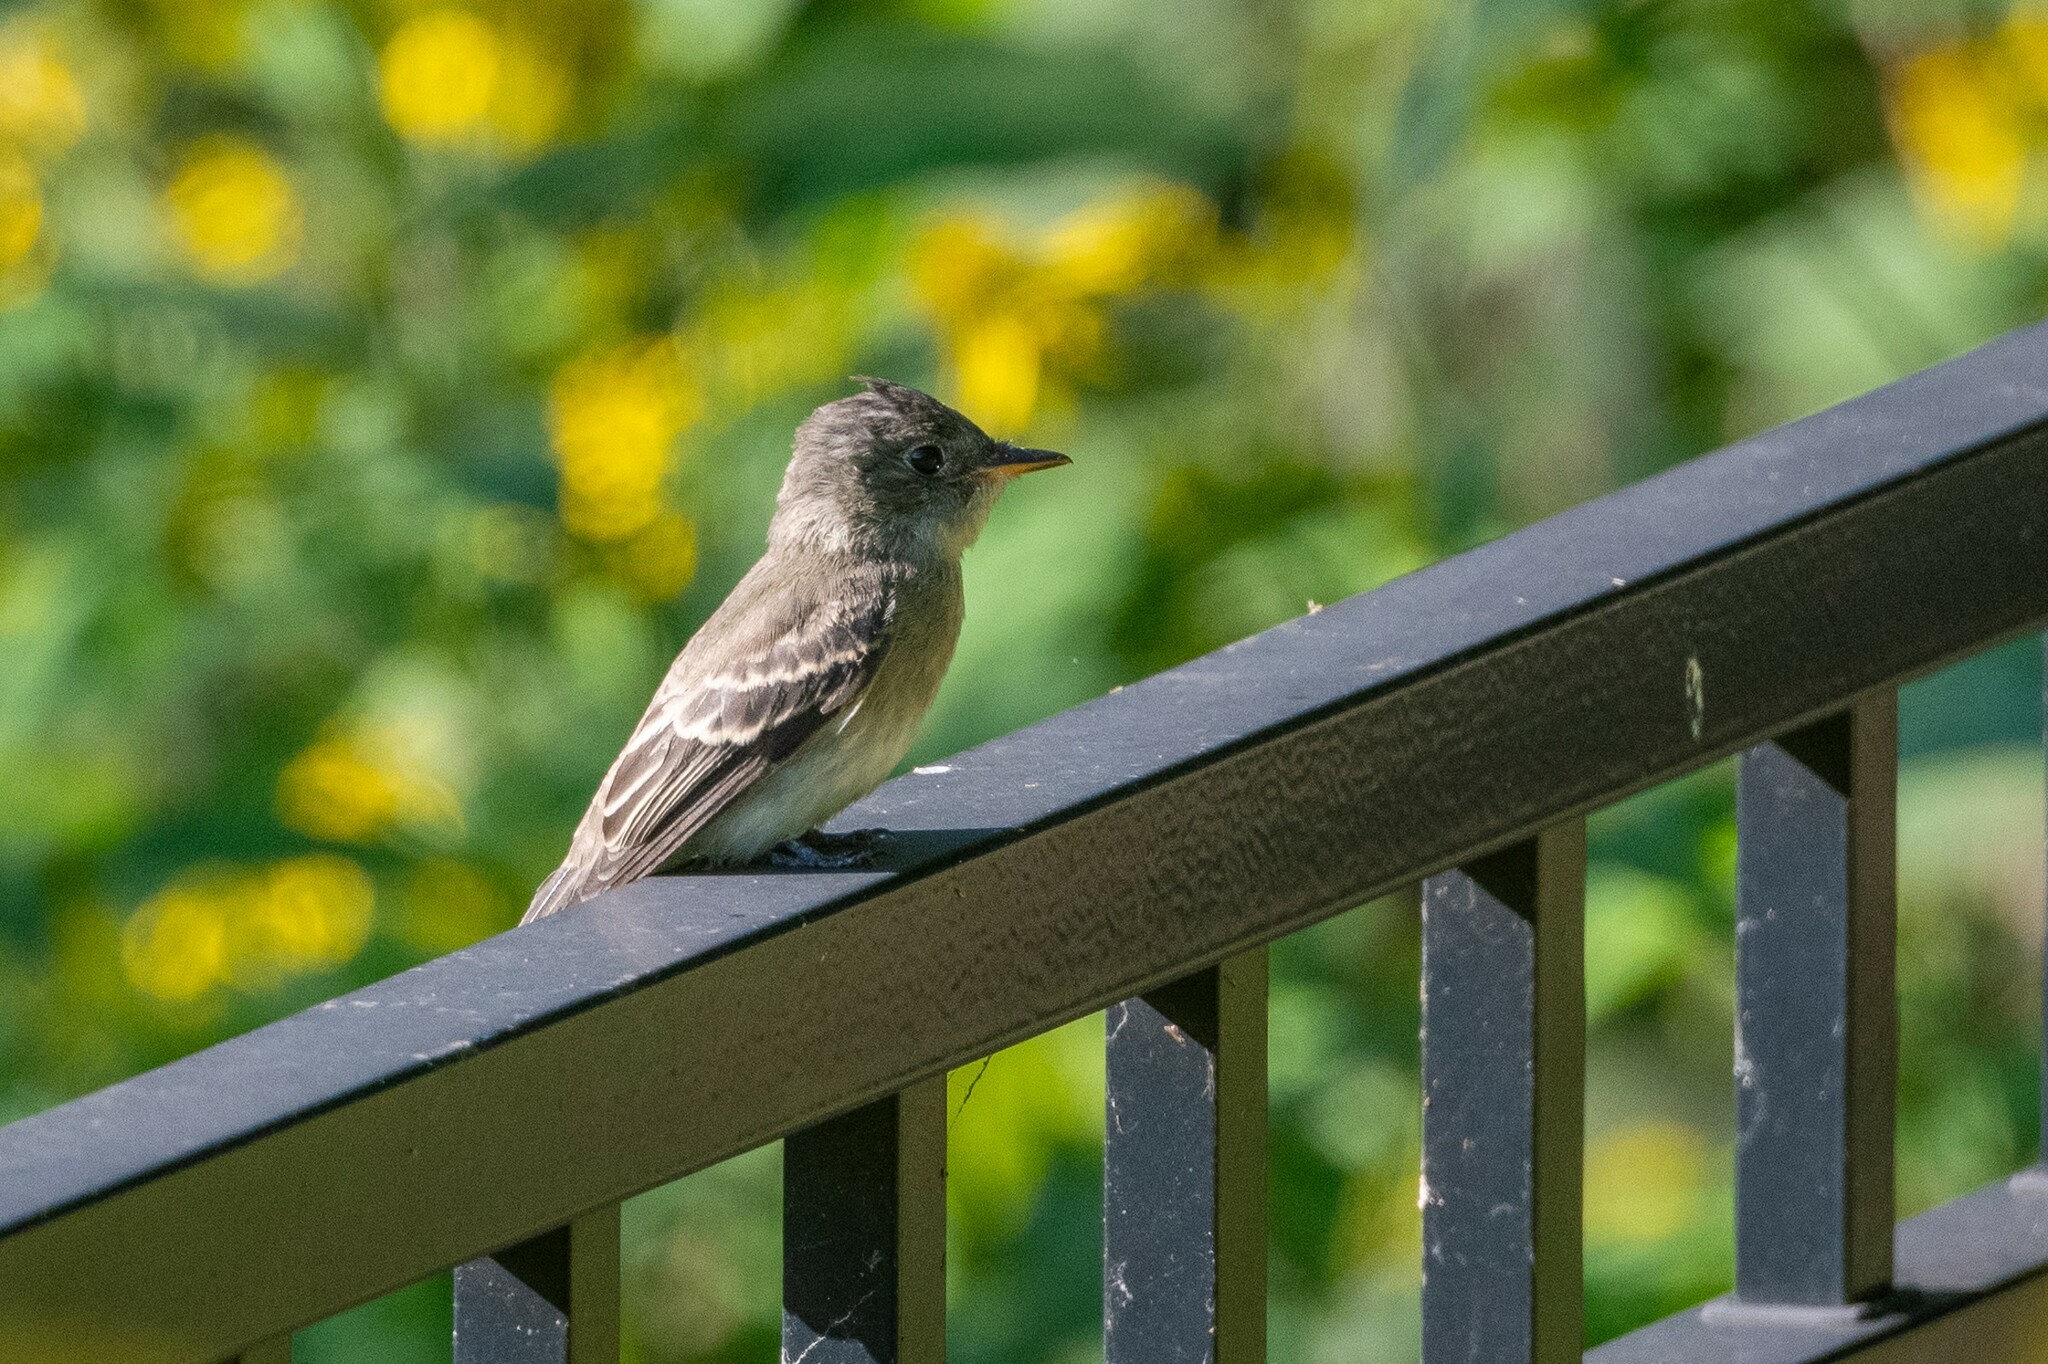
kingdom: Animalia
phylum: Chordata
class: Aves
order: Passeriformes
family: Tyrannidae
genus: Contopus
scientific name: Contopus virens
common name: Eastern wood-pewee
